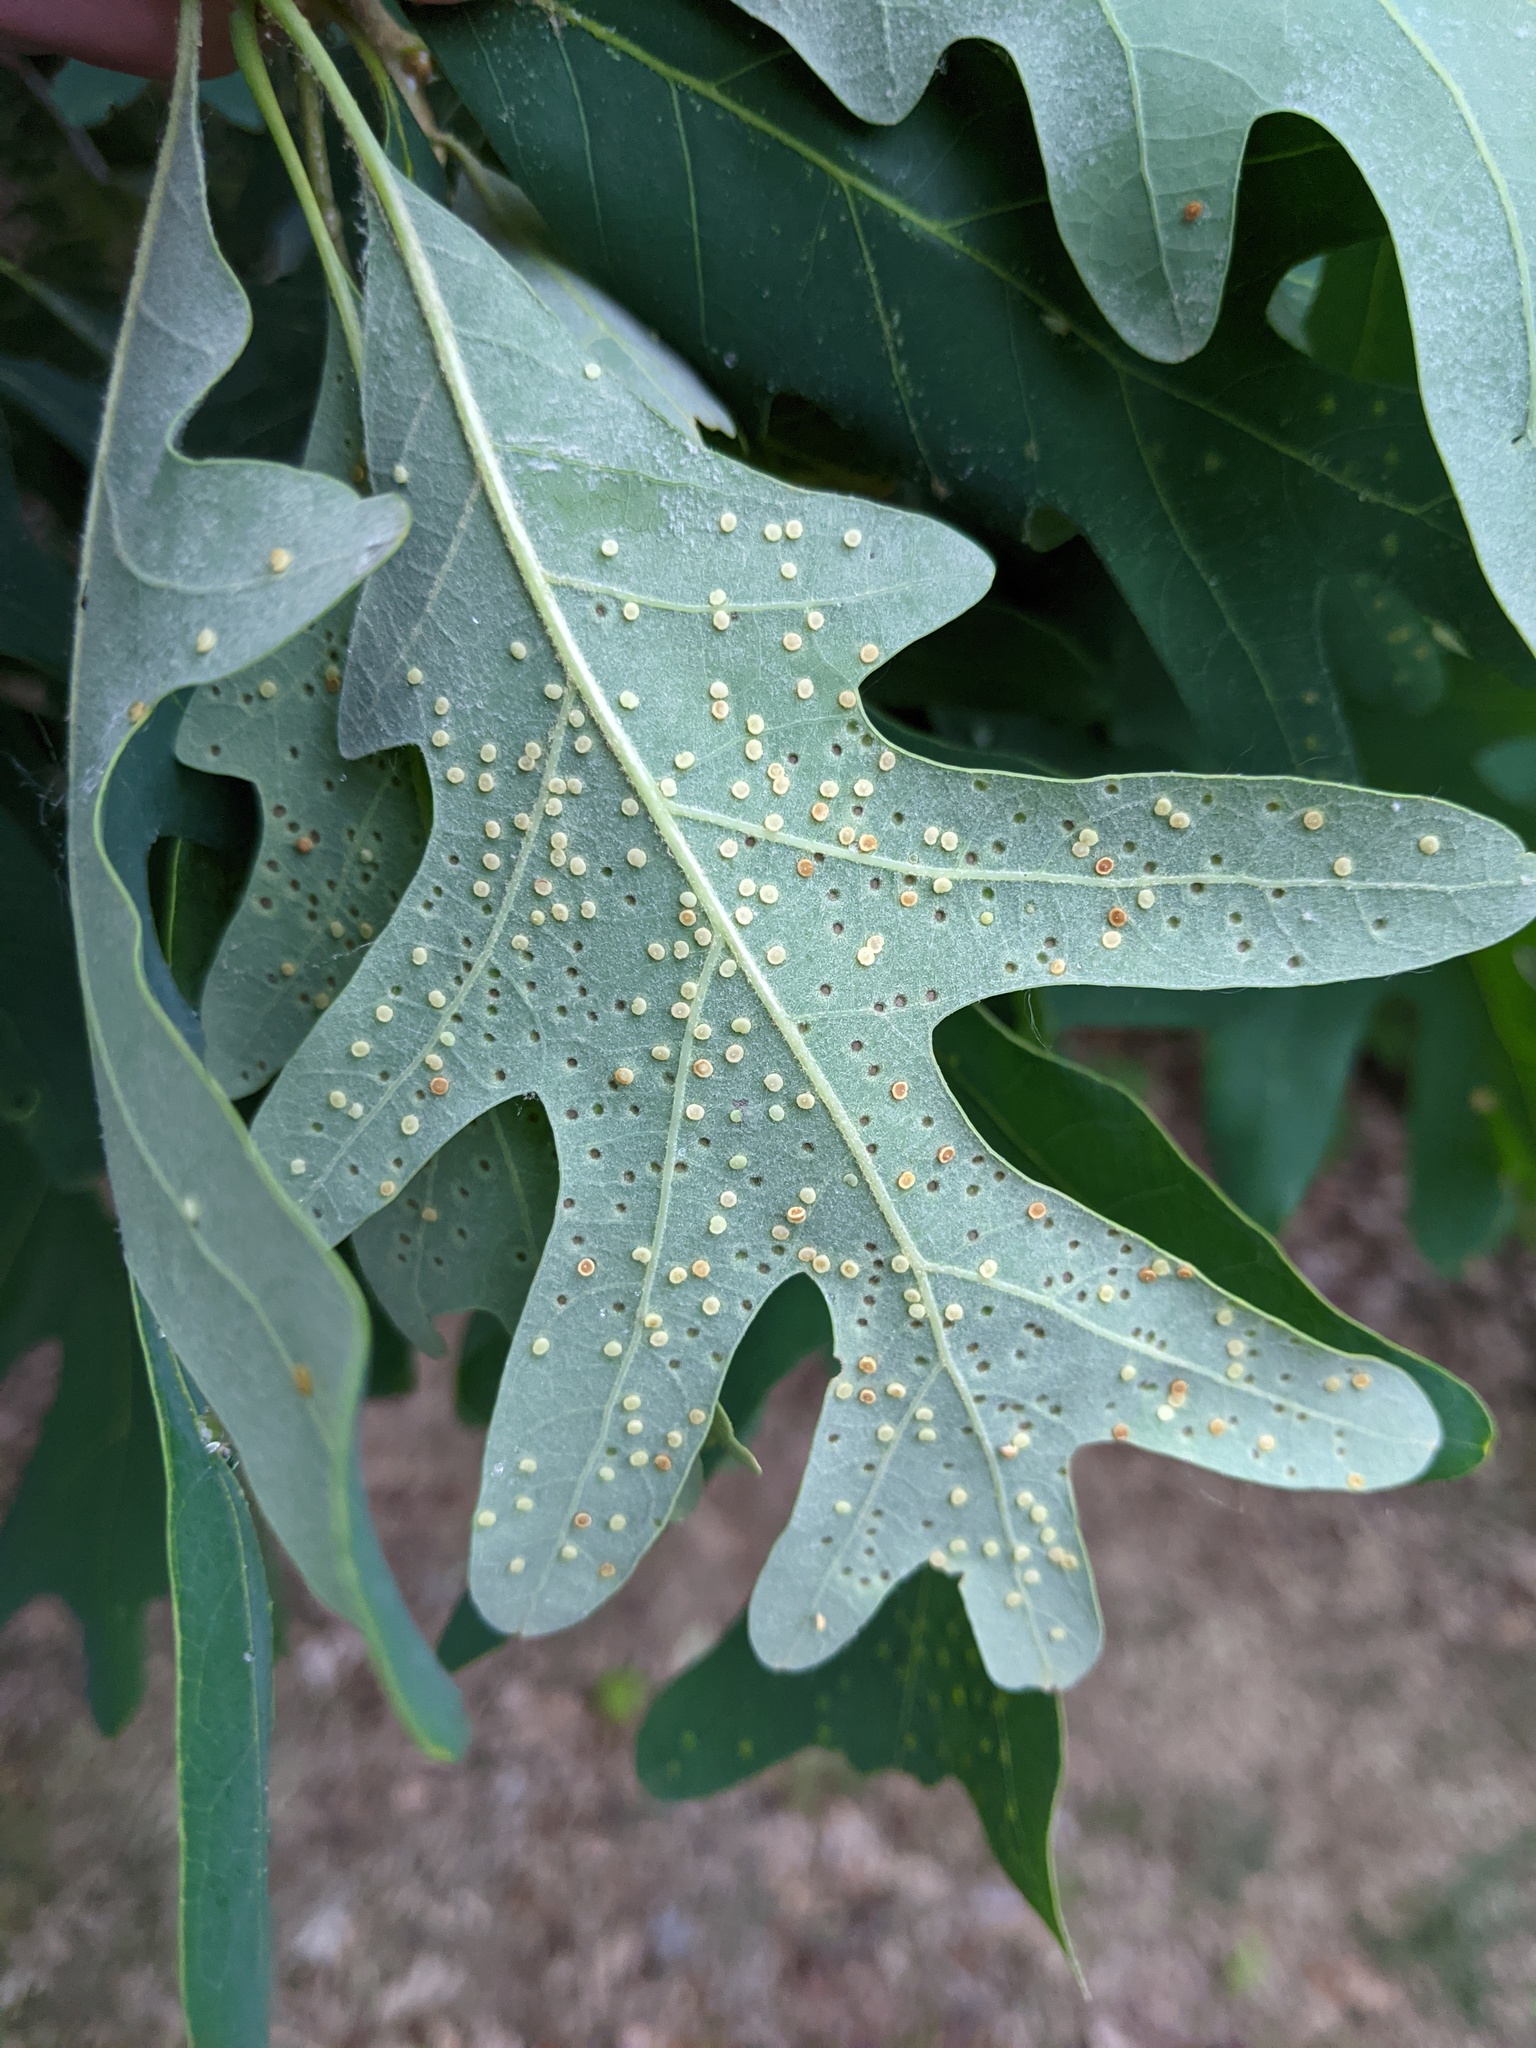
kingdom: Animalia
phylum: Arthropoda
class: Insecta
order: Hymenoptera
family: Cynipidae
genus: Neuroterus
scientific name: Neuroterus
